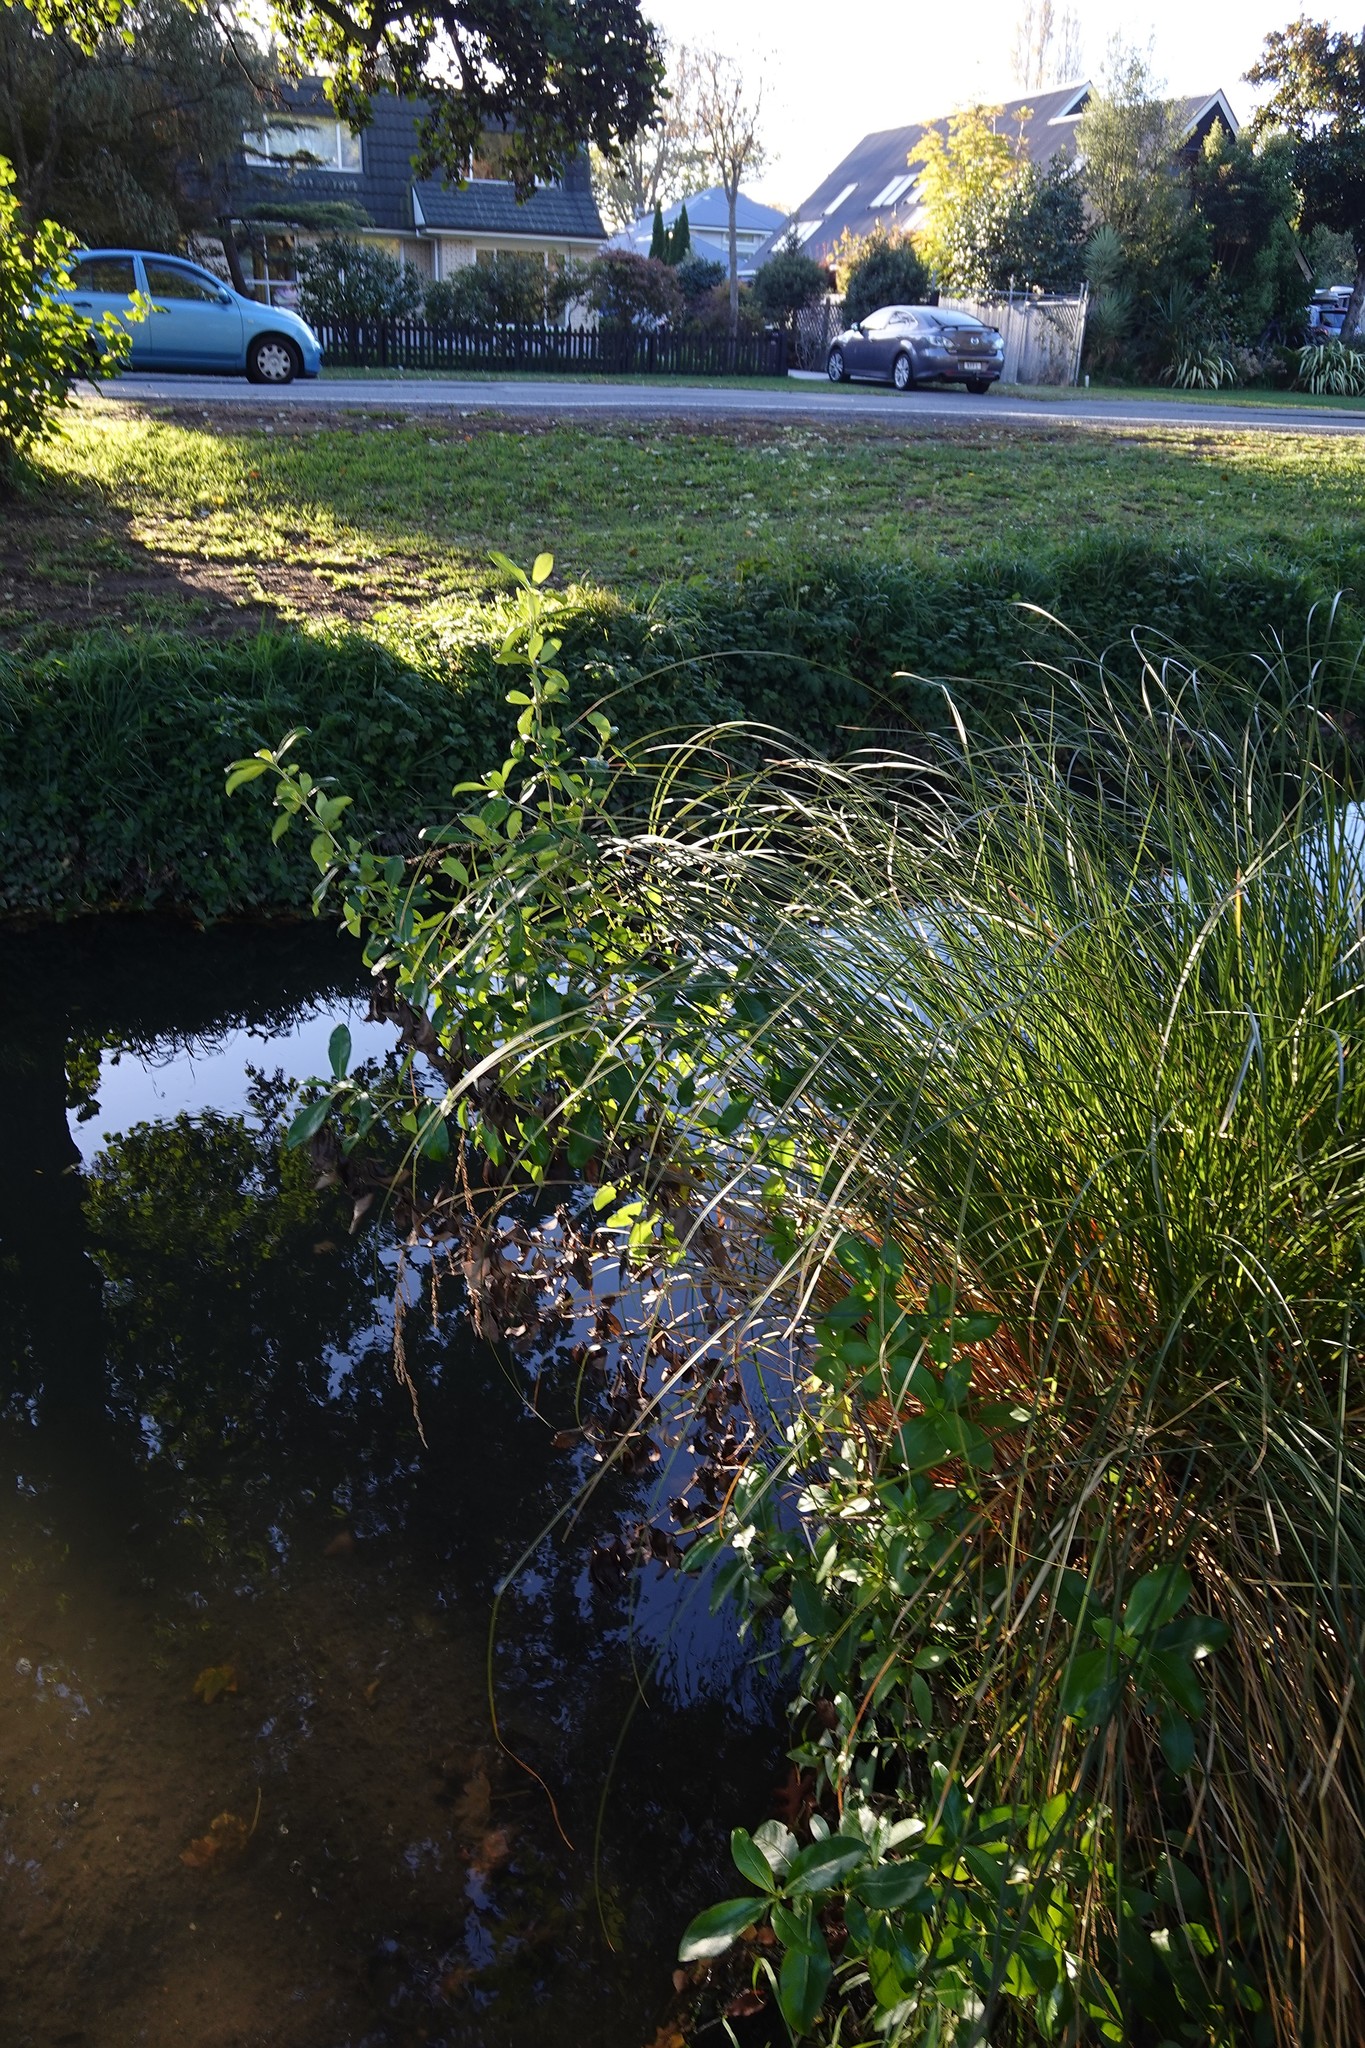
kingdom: Plantae
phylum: Tracheophyta
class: Magnoliopsida
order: Gentianales
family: Rubiaceae
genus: Coprosma
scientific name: Coprosma robusta
